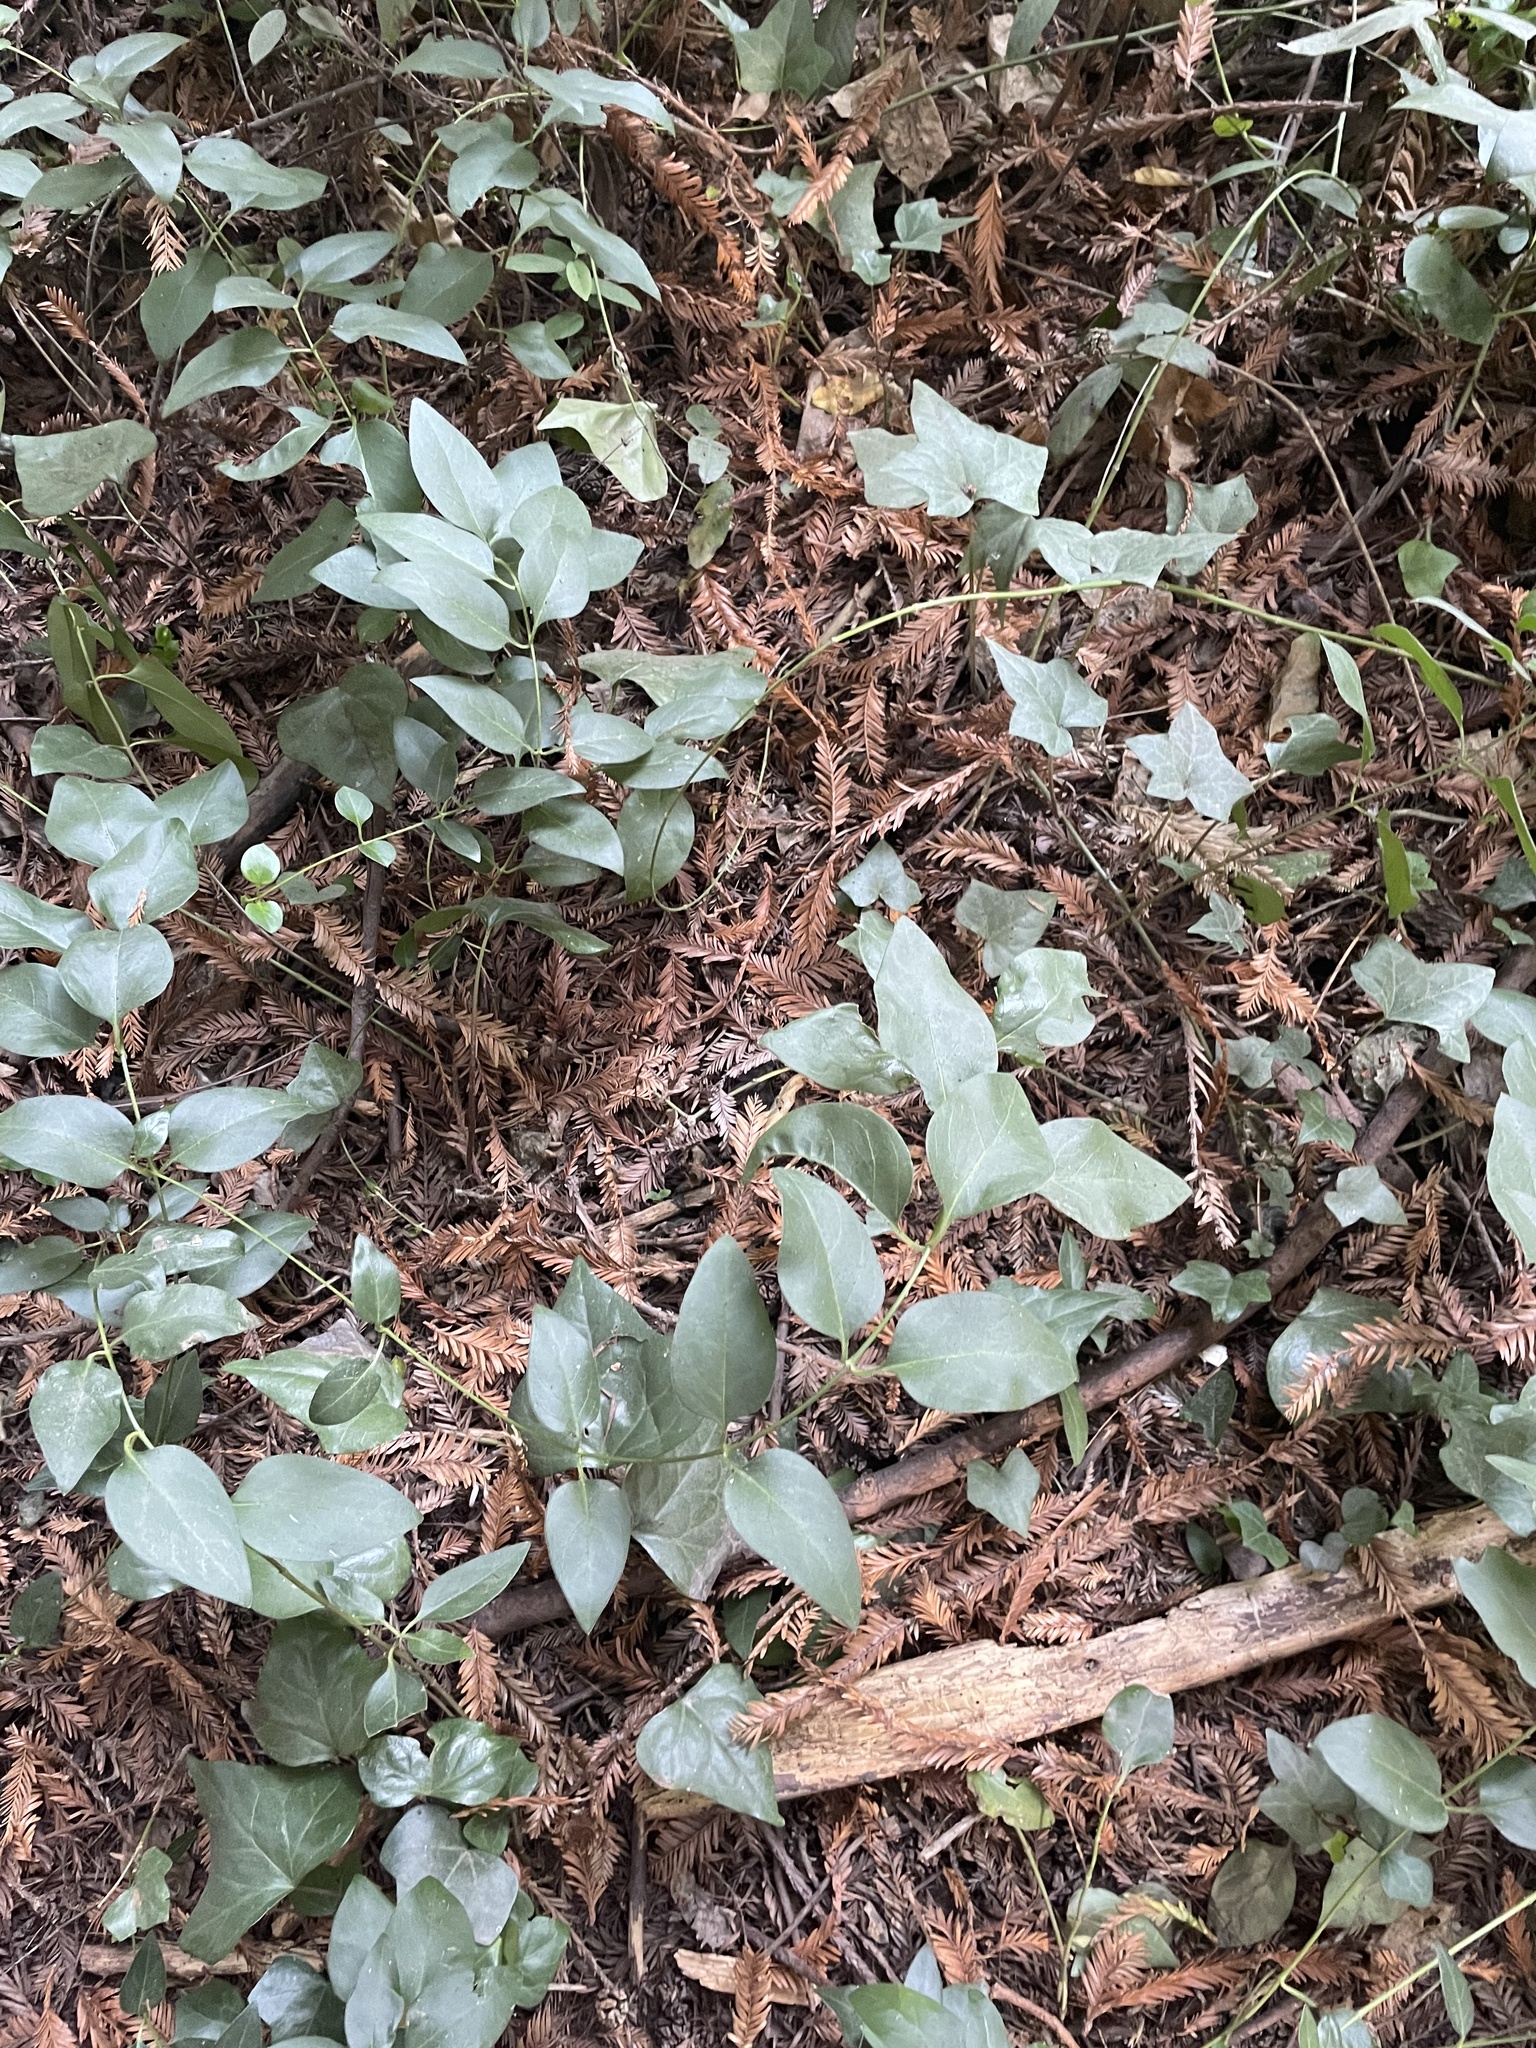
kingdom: Plantae
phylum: Tracheophyta
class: Magnoliopsida
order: Gentianales
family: Apocynaceae
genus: Vinca
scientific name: Vinca major
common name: Greater periwinkle
